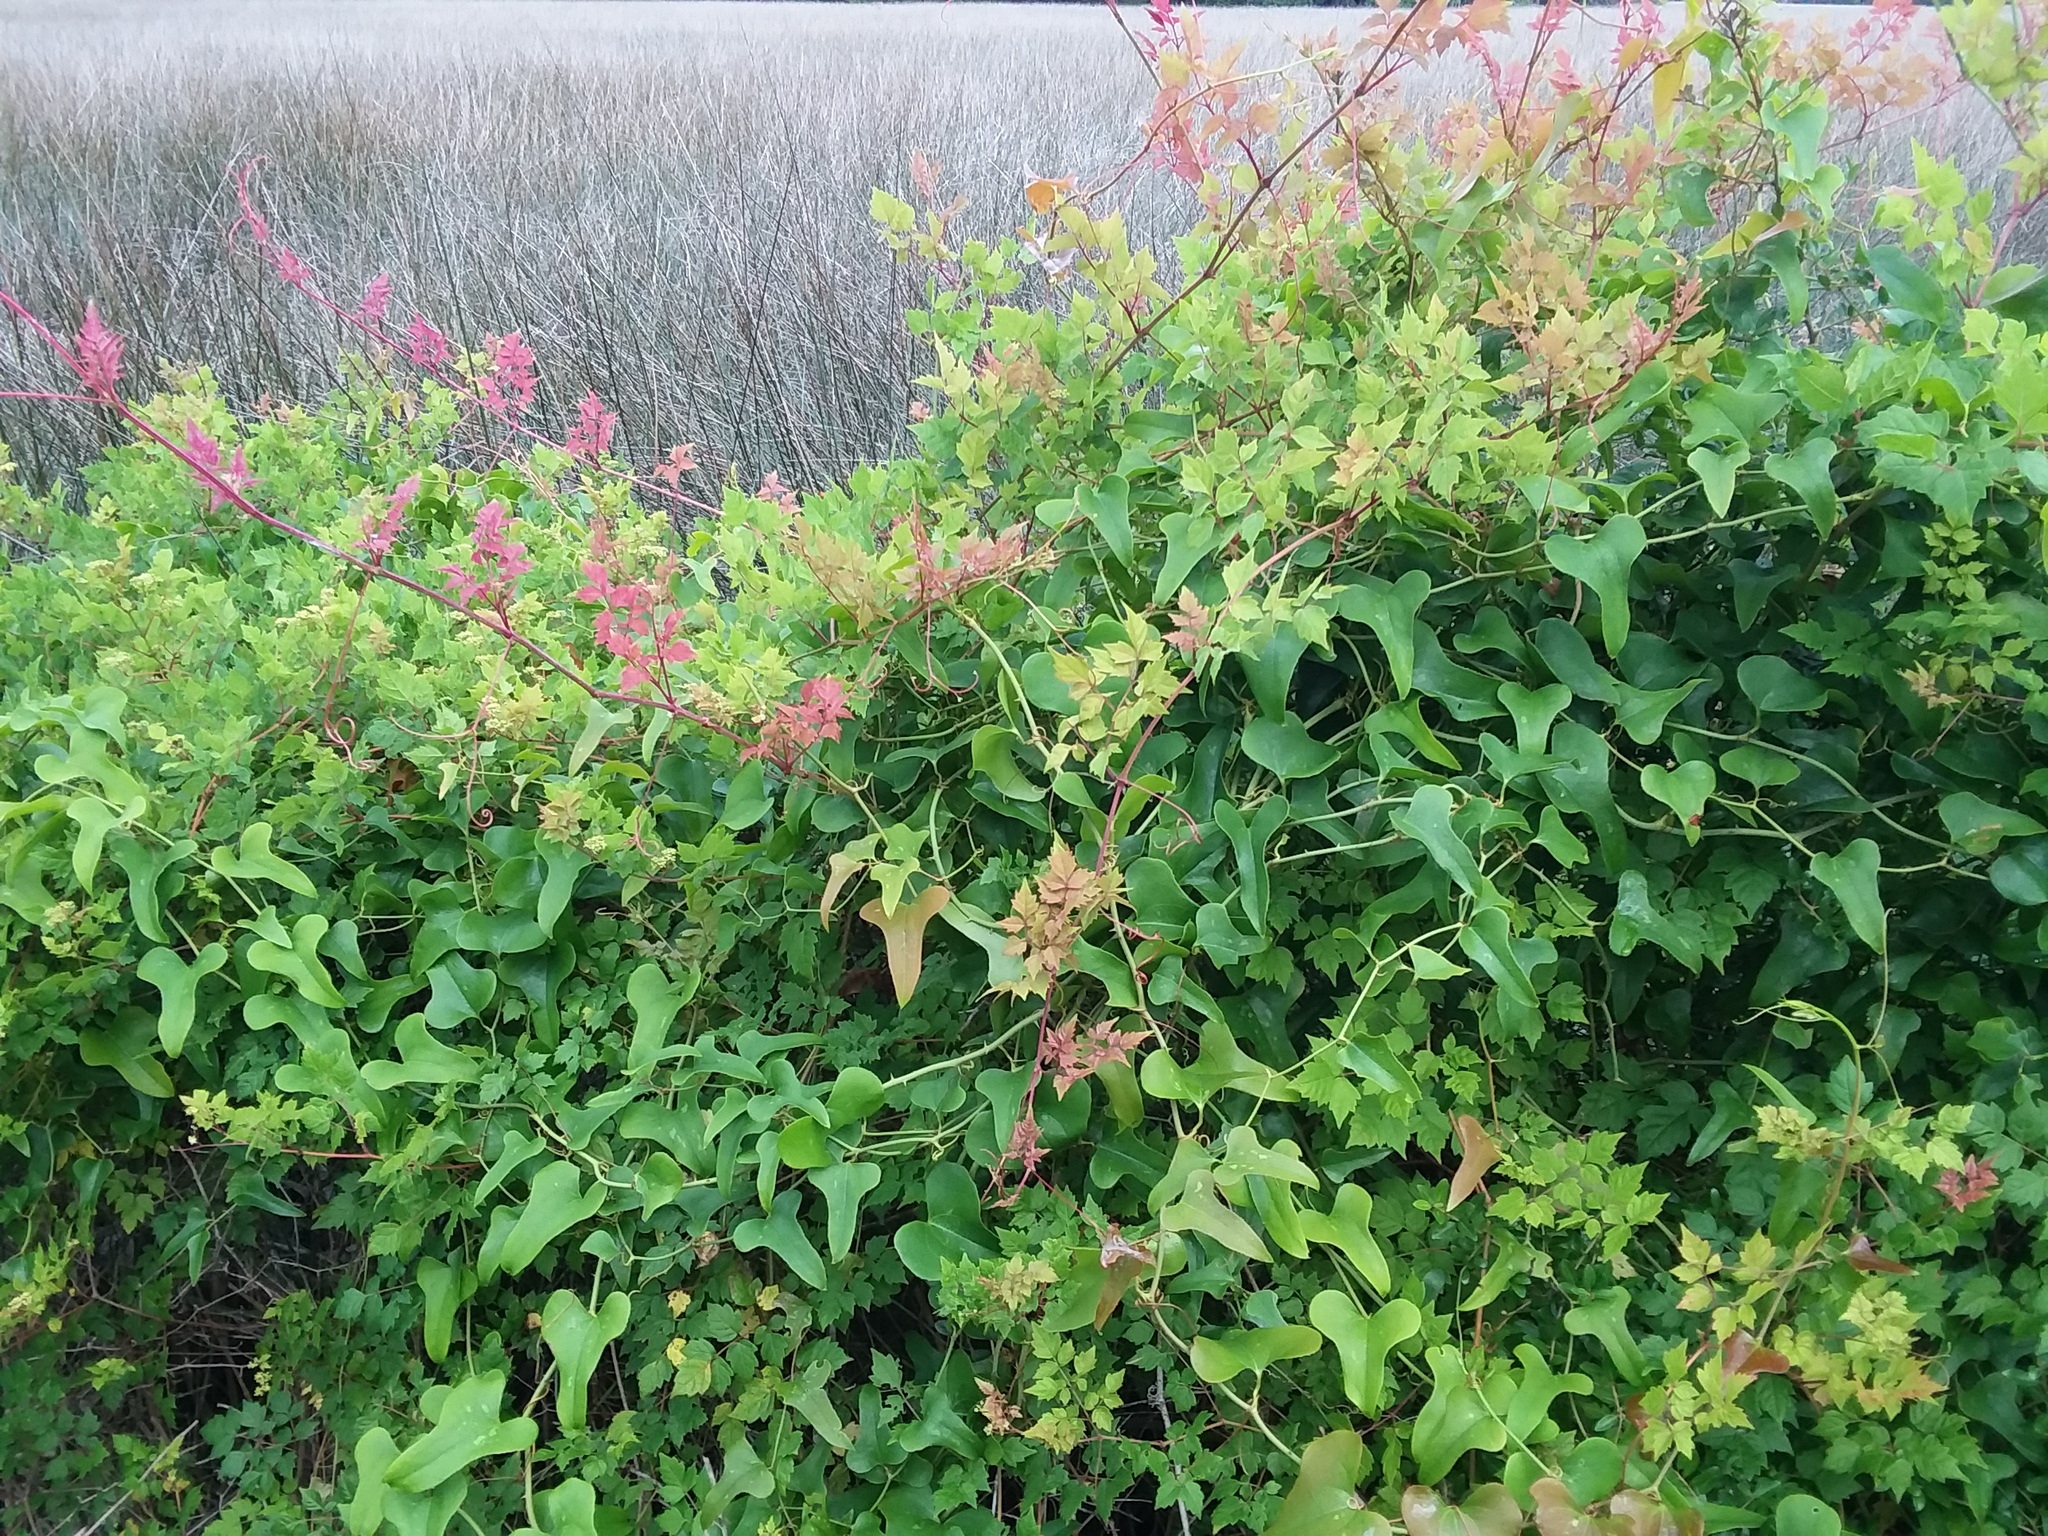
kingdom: Plantae
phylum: Tracheophyta
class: Magnoliopsida
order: Vitales
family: Vitaceae
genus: Nekemias
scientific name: Nekemias arborea
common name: Peppervine
